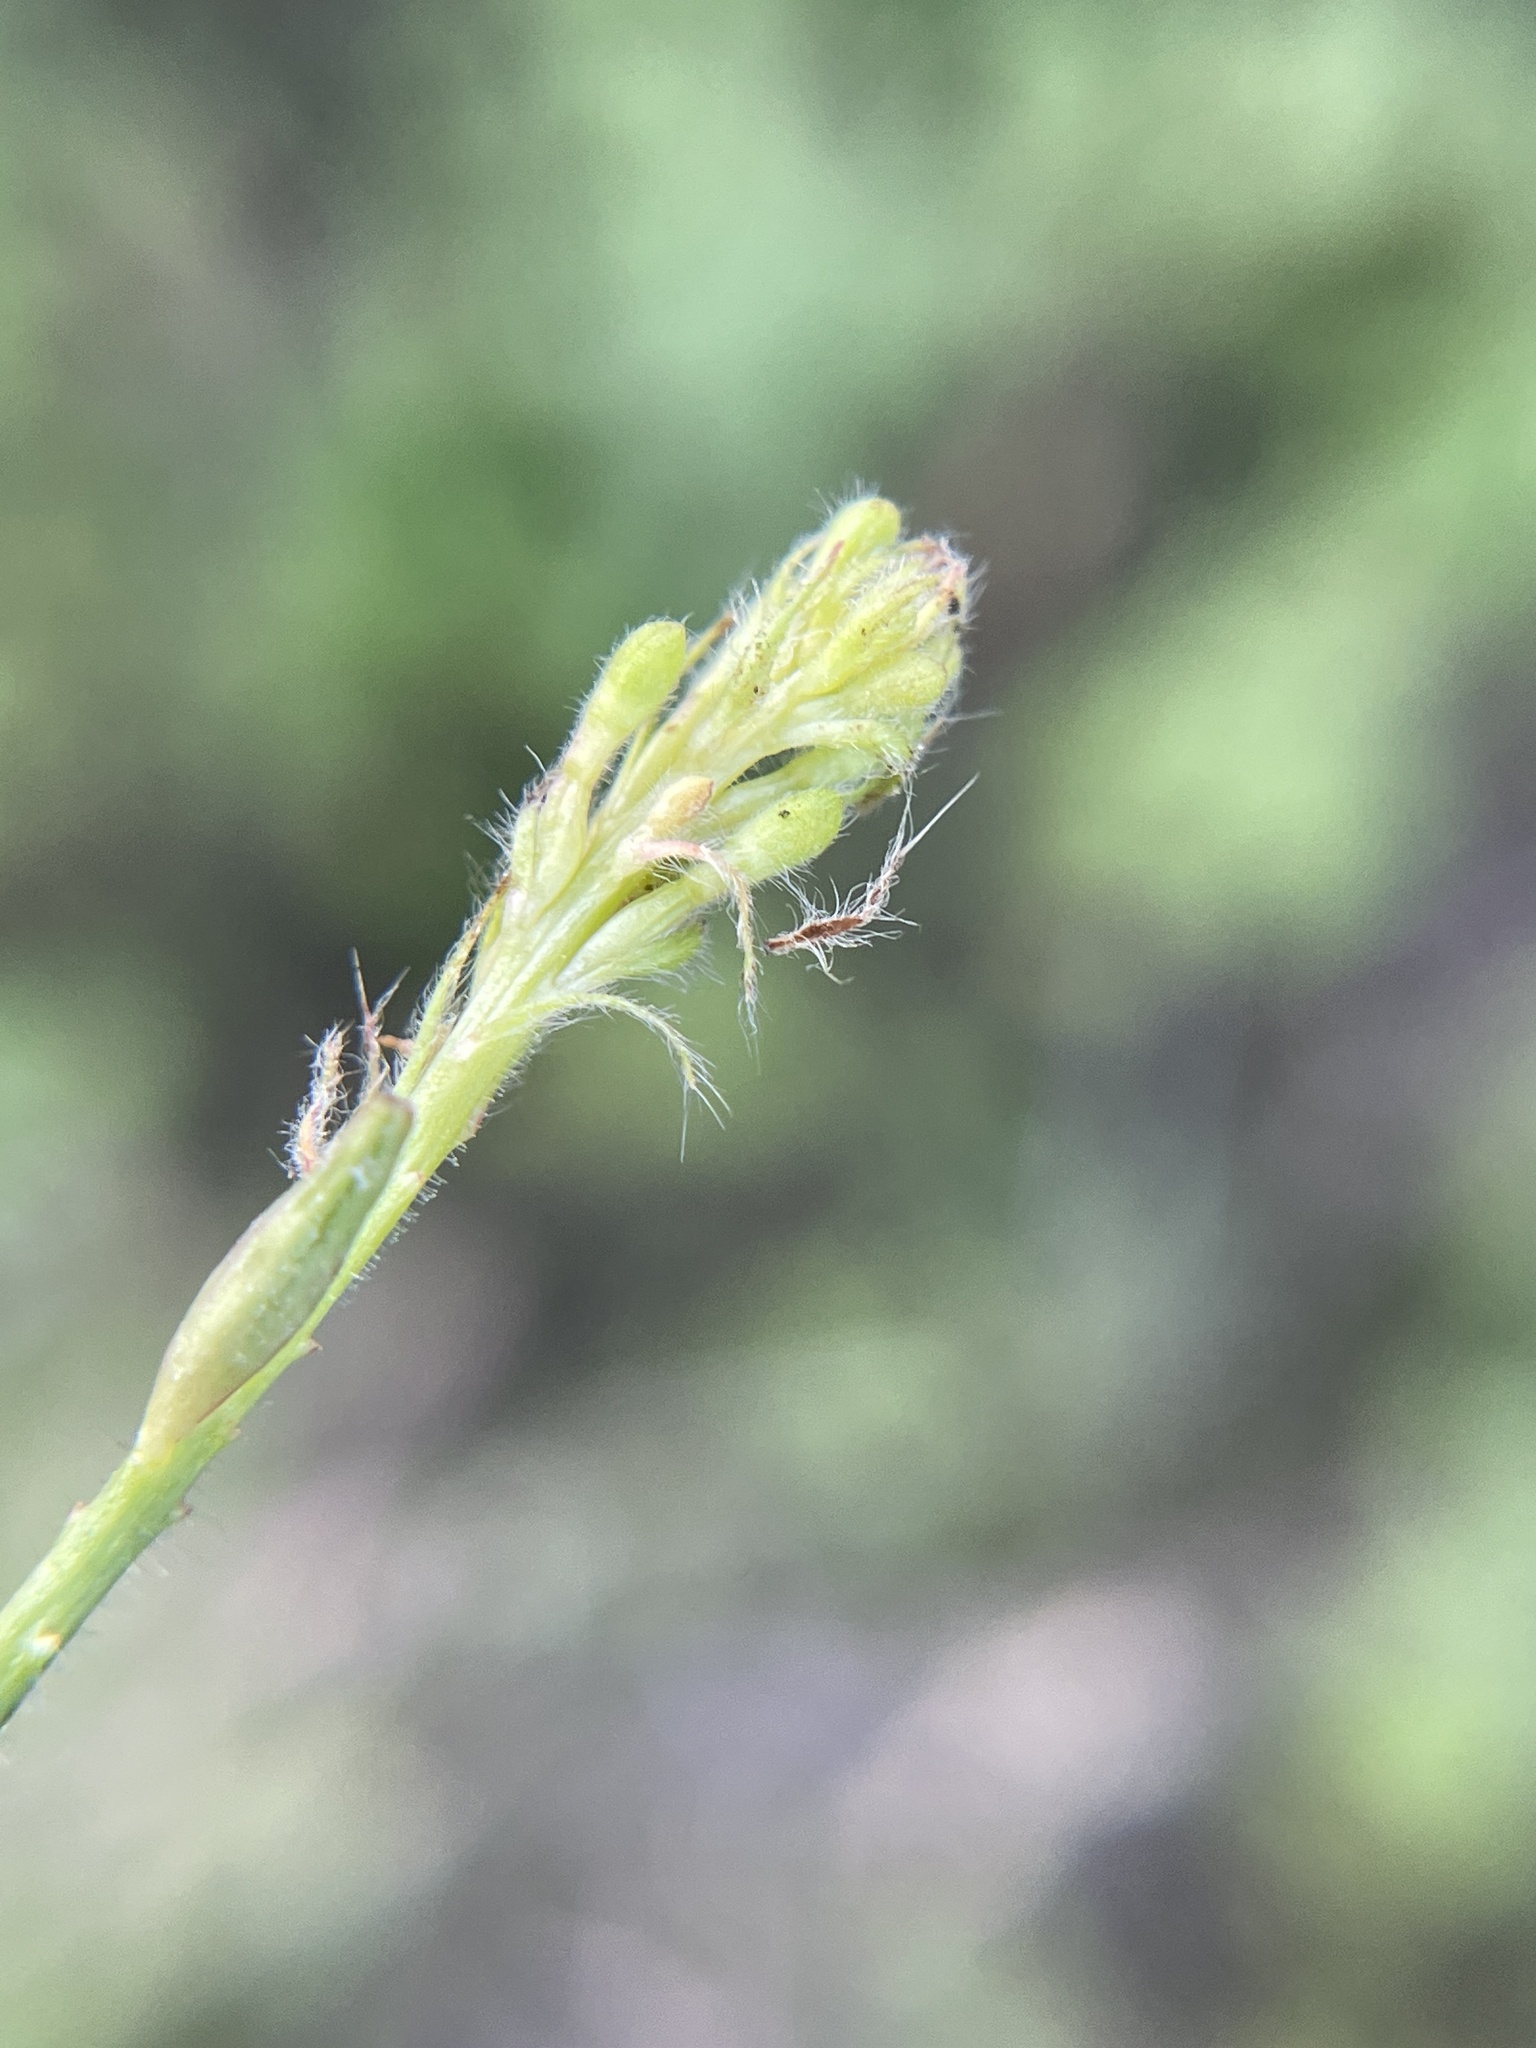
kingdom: Plantae
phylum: Tracheophyta
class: Magnoliopsida
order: Myrtales
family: Onagraceae
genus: Oenothera
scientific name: Oenothera curtiflora
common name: Velvetweed
